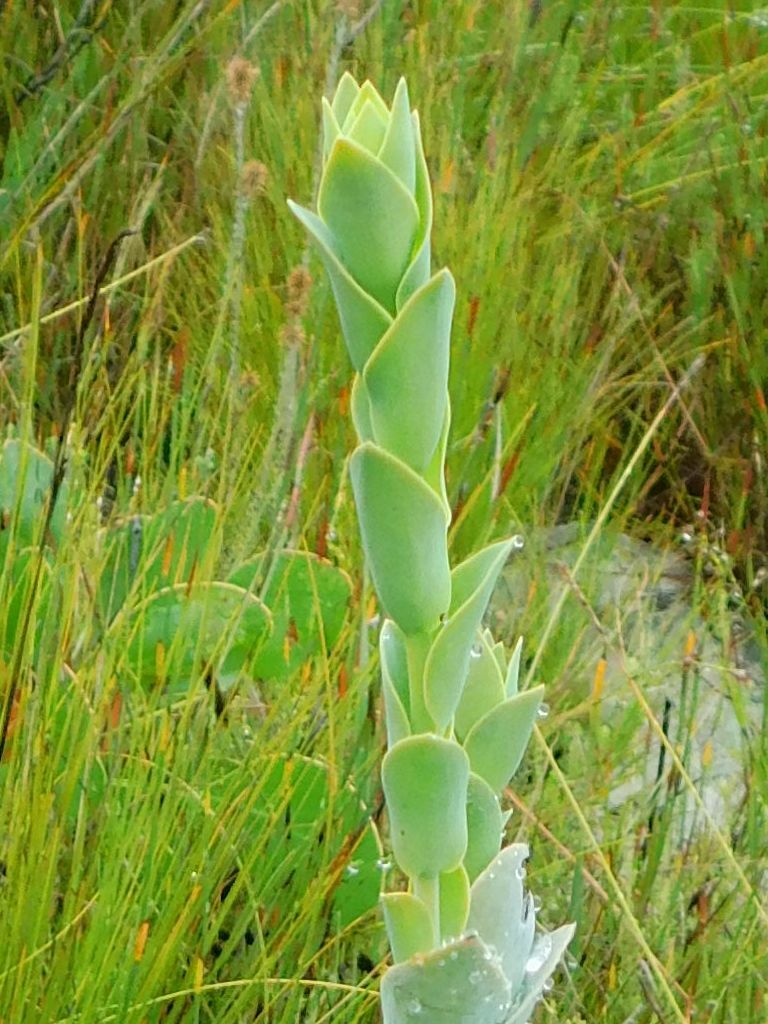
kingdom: Plantae
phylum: Tracheophyta
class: Magnoliopsida
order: Santalales
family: Thesiaceae
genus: Thesium
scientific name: Thesium euphorbioides
